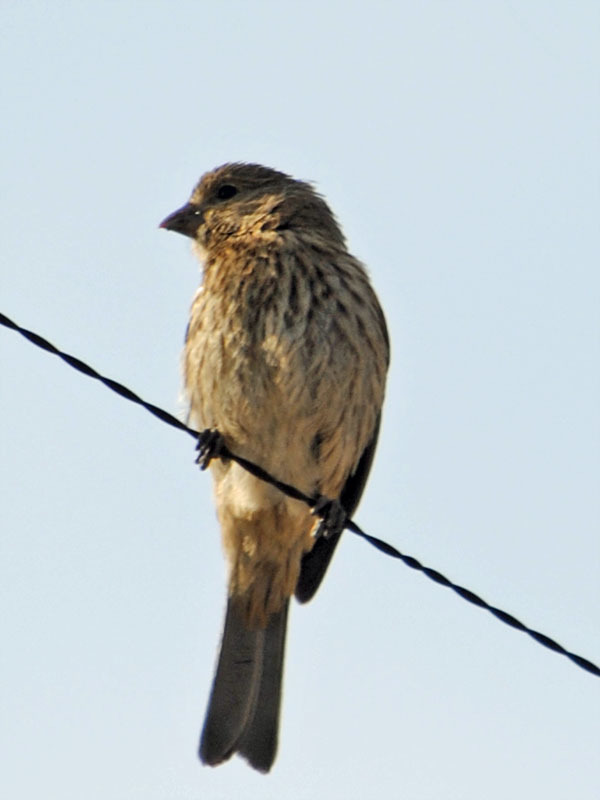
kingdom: Animalia
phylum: Chordata
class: Aves
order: Passeriformes
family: Fringillidae
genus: Haemorhous
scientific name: Haemorhous mexicanus
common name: House finch
